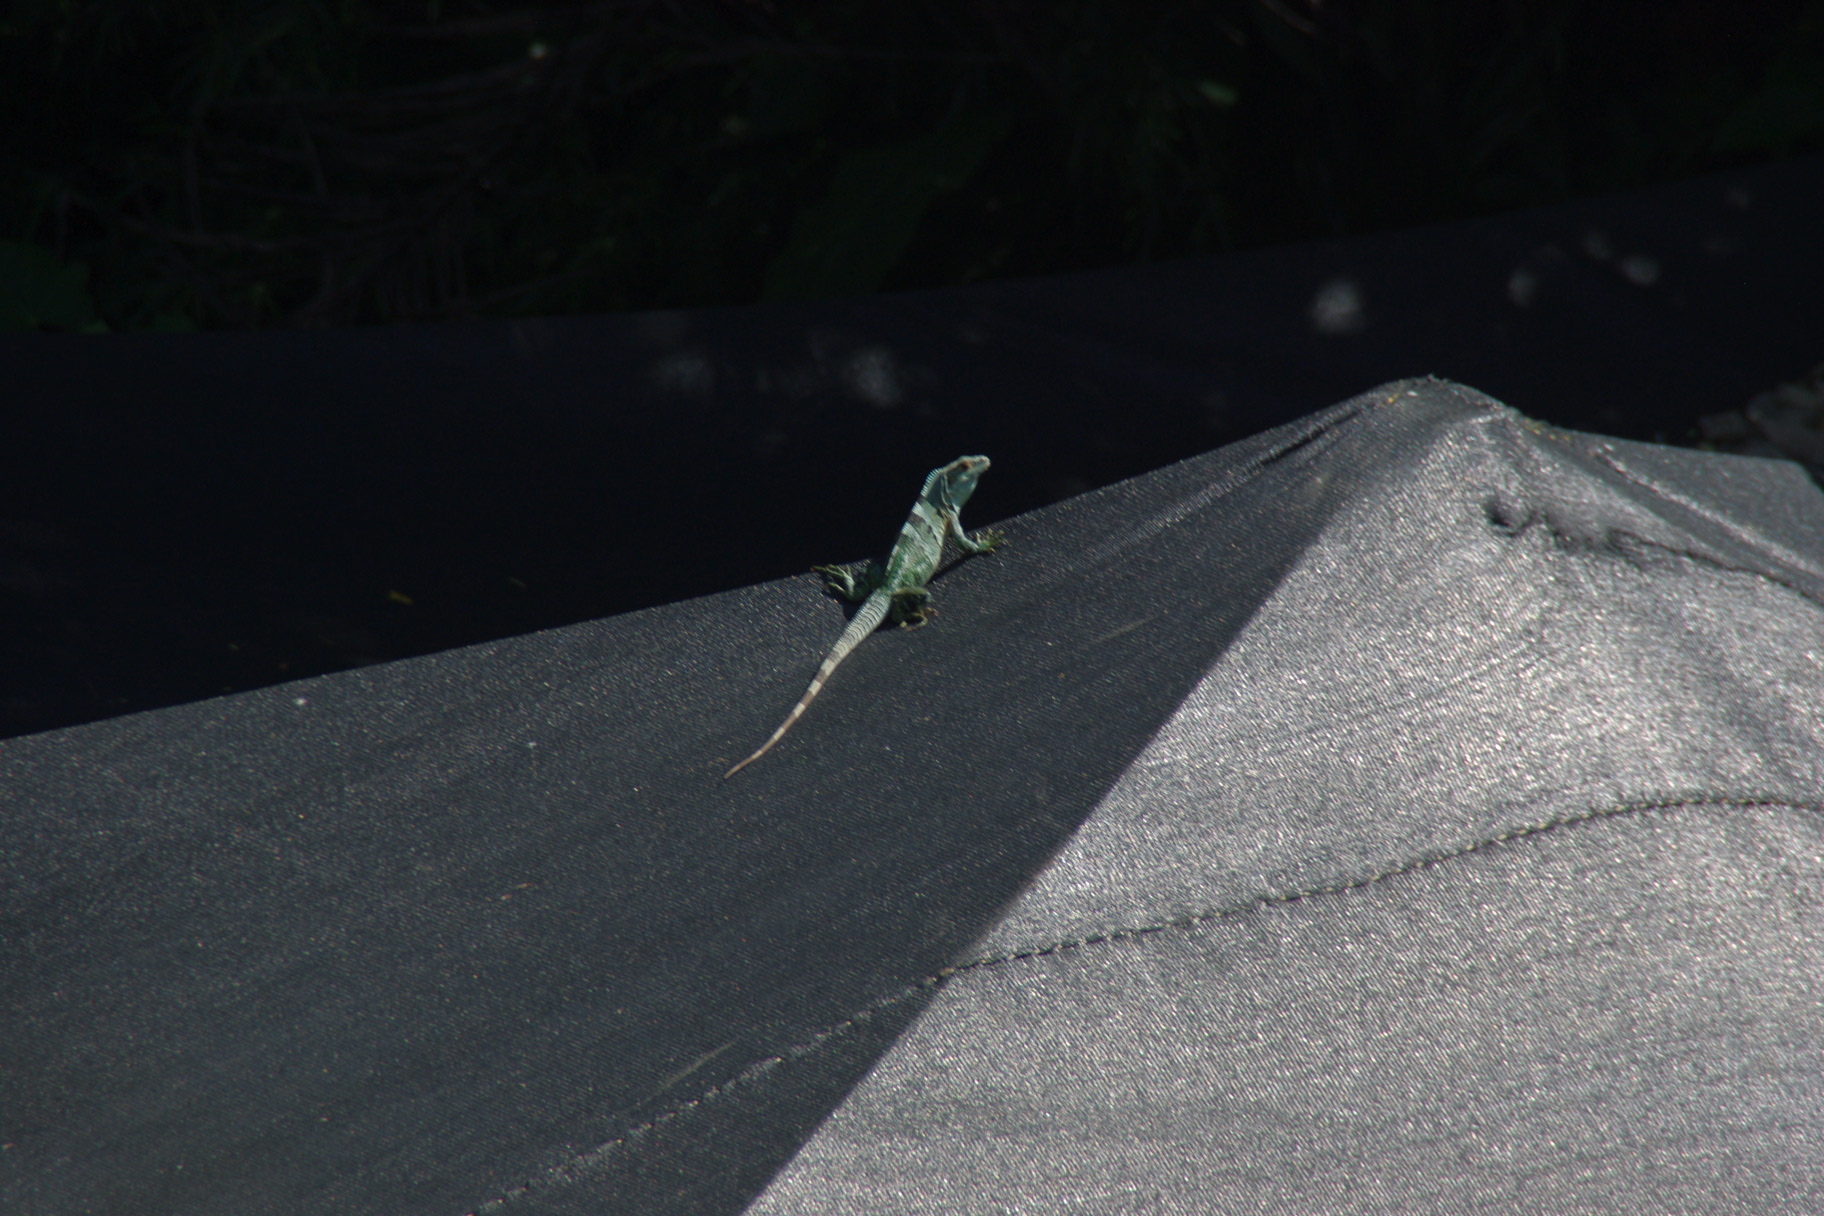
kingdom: Animalia
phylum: Chordata
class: Squamata
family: Iguanidae
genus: Ctenosaura
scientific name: Ctenosaura similis
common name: Black spiny-tailed iguana
